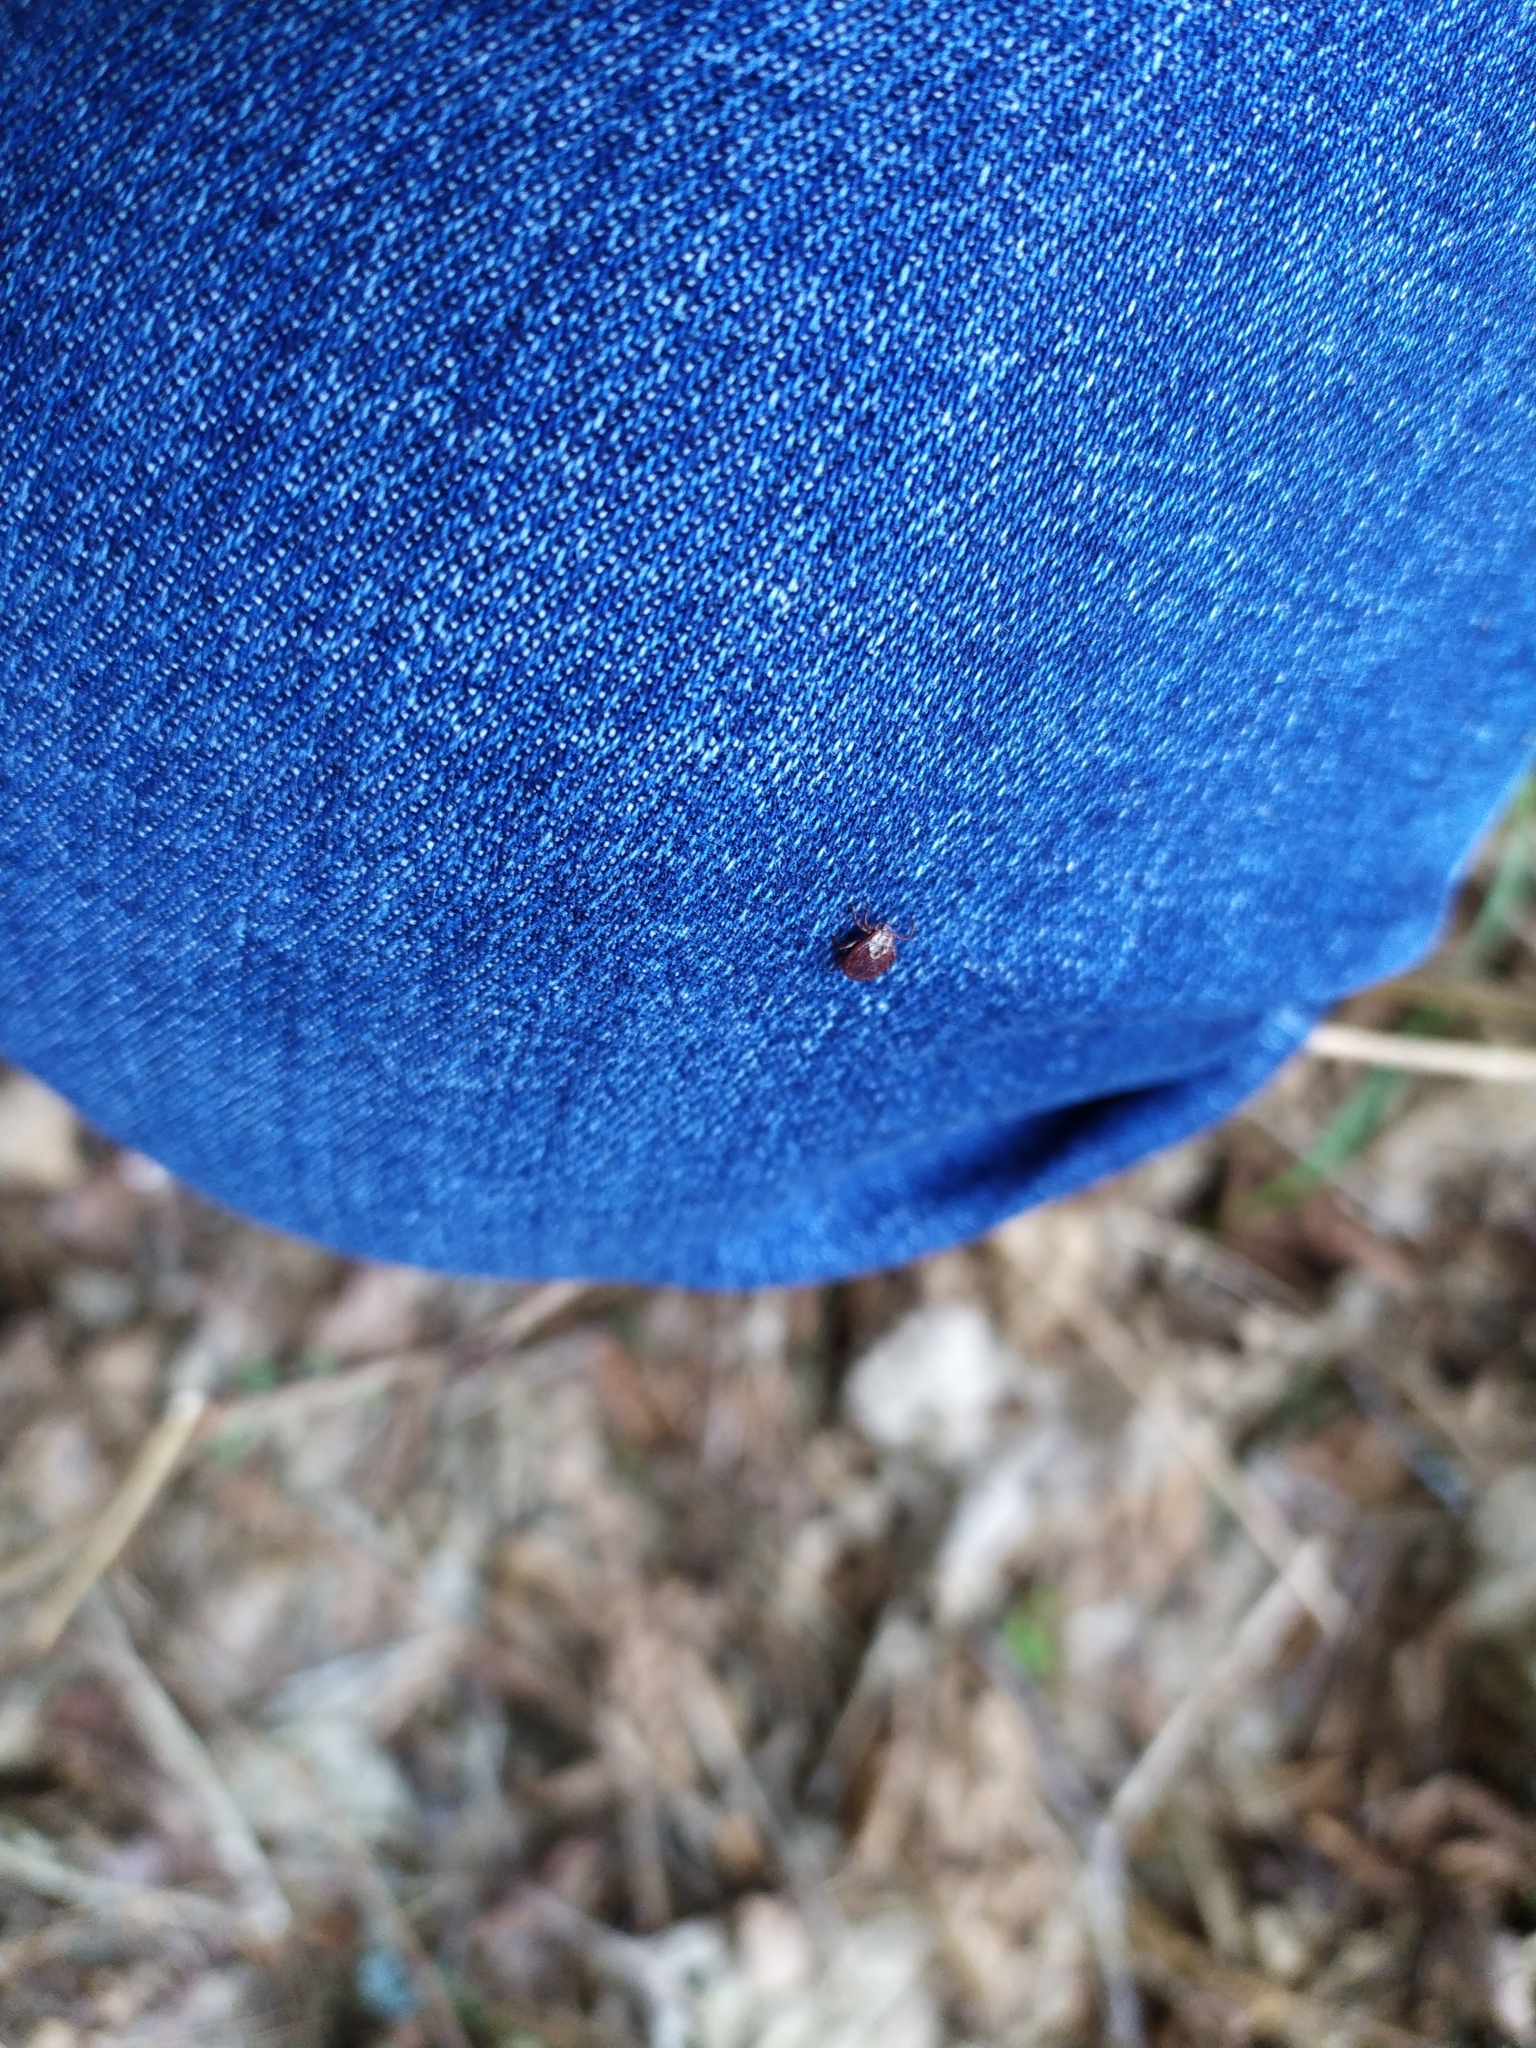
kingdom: Animalia
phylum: Arthropoda
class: Arachnida
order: Ixodida
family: Ixodidae
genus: Dermacentor
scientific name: Dermacentor reticulatus
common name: Ornate cow tick
